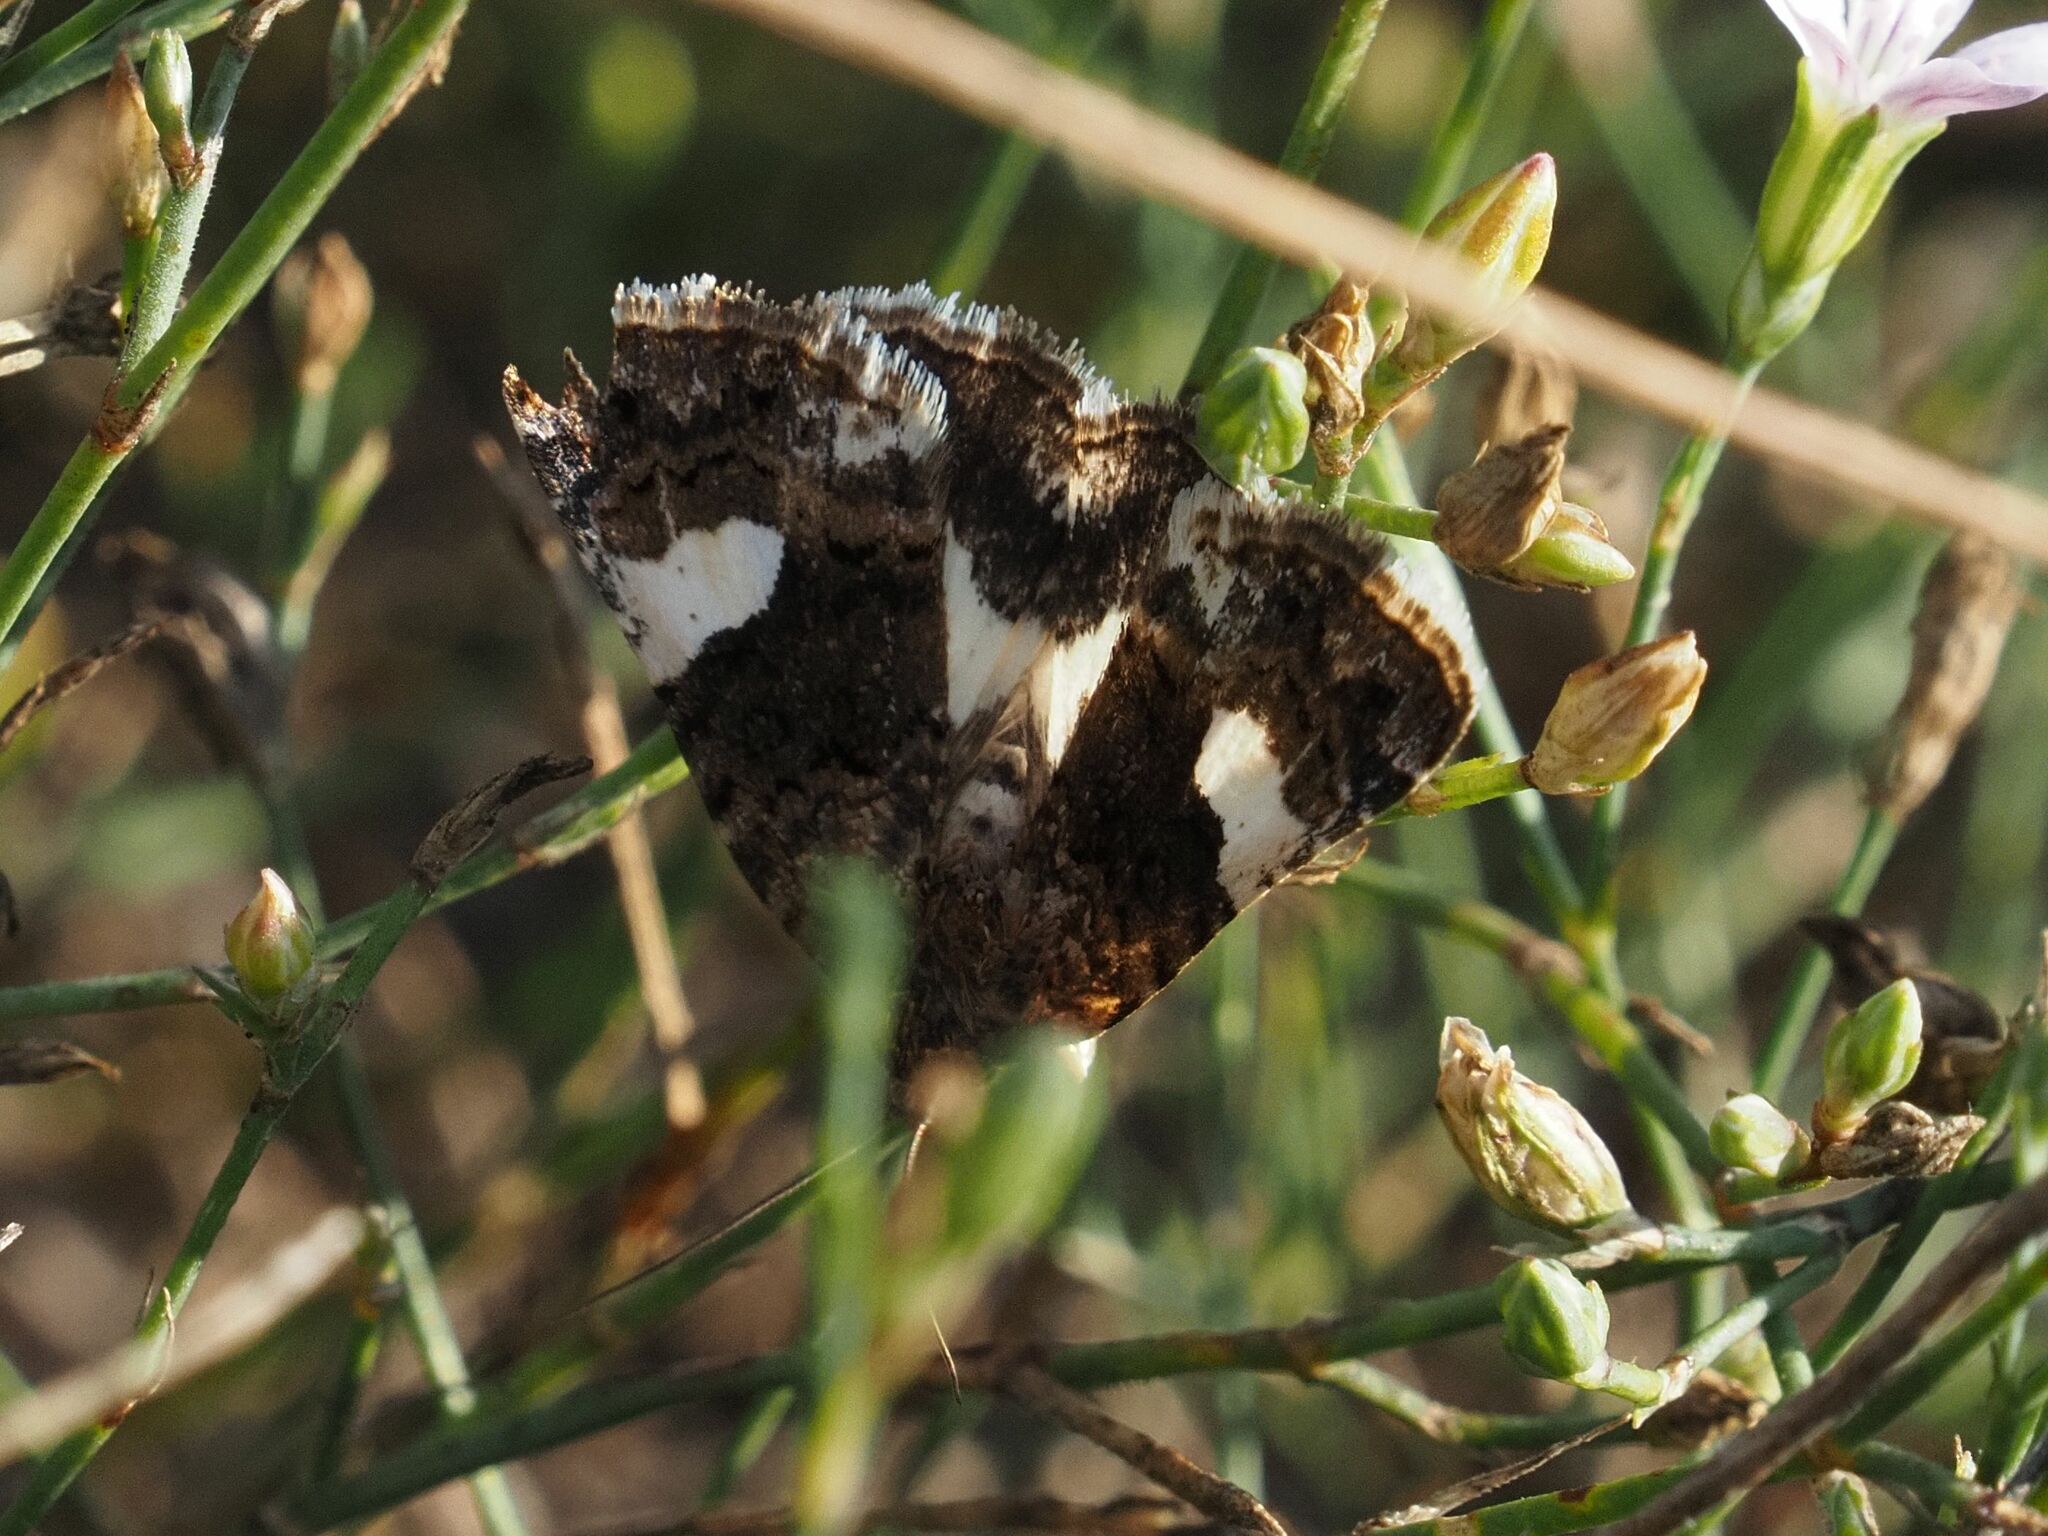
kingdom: Animalia
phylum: Arthropoda
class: Insecta
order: Lepidoptera
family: Erebidae
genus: Tyta
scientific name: Tyta luctuosa
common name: Four-spotted
